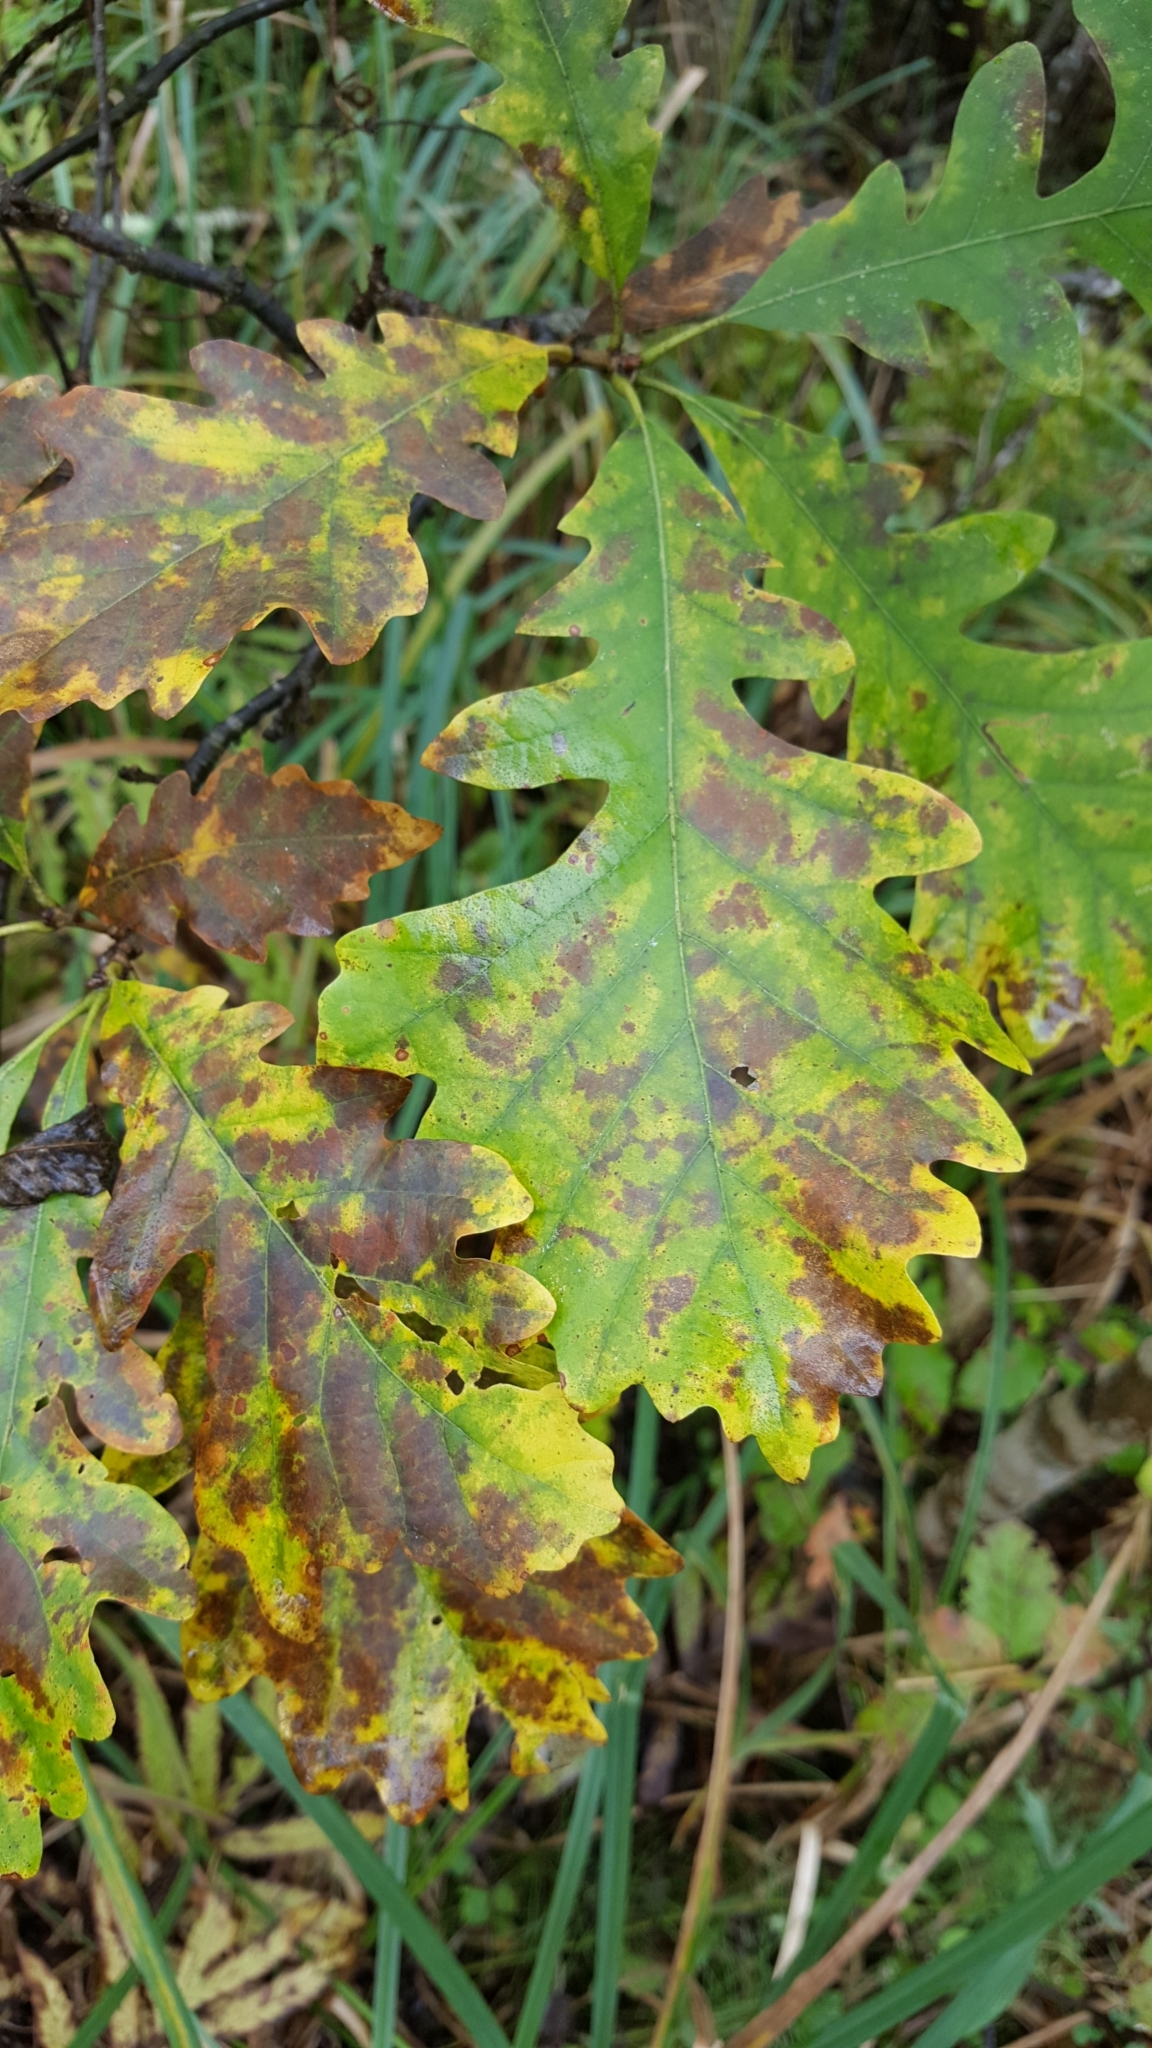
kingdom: Plantae
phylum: Tracheophyta
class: Magnoliopsida
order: Fagales
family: Fagaceae
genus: Quercus
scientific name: Quercus macrocarpa
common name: Bur oak
